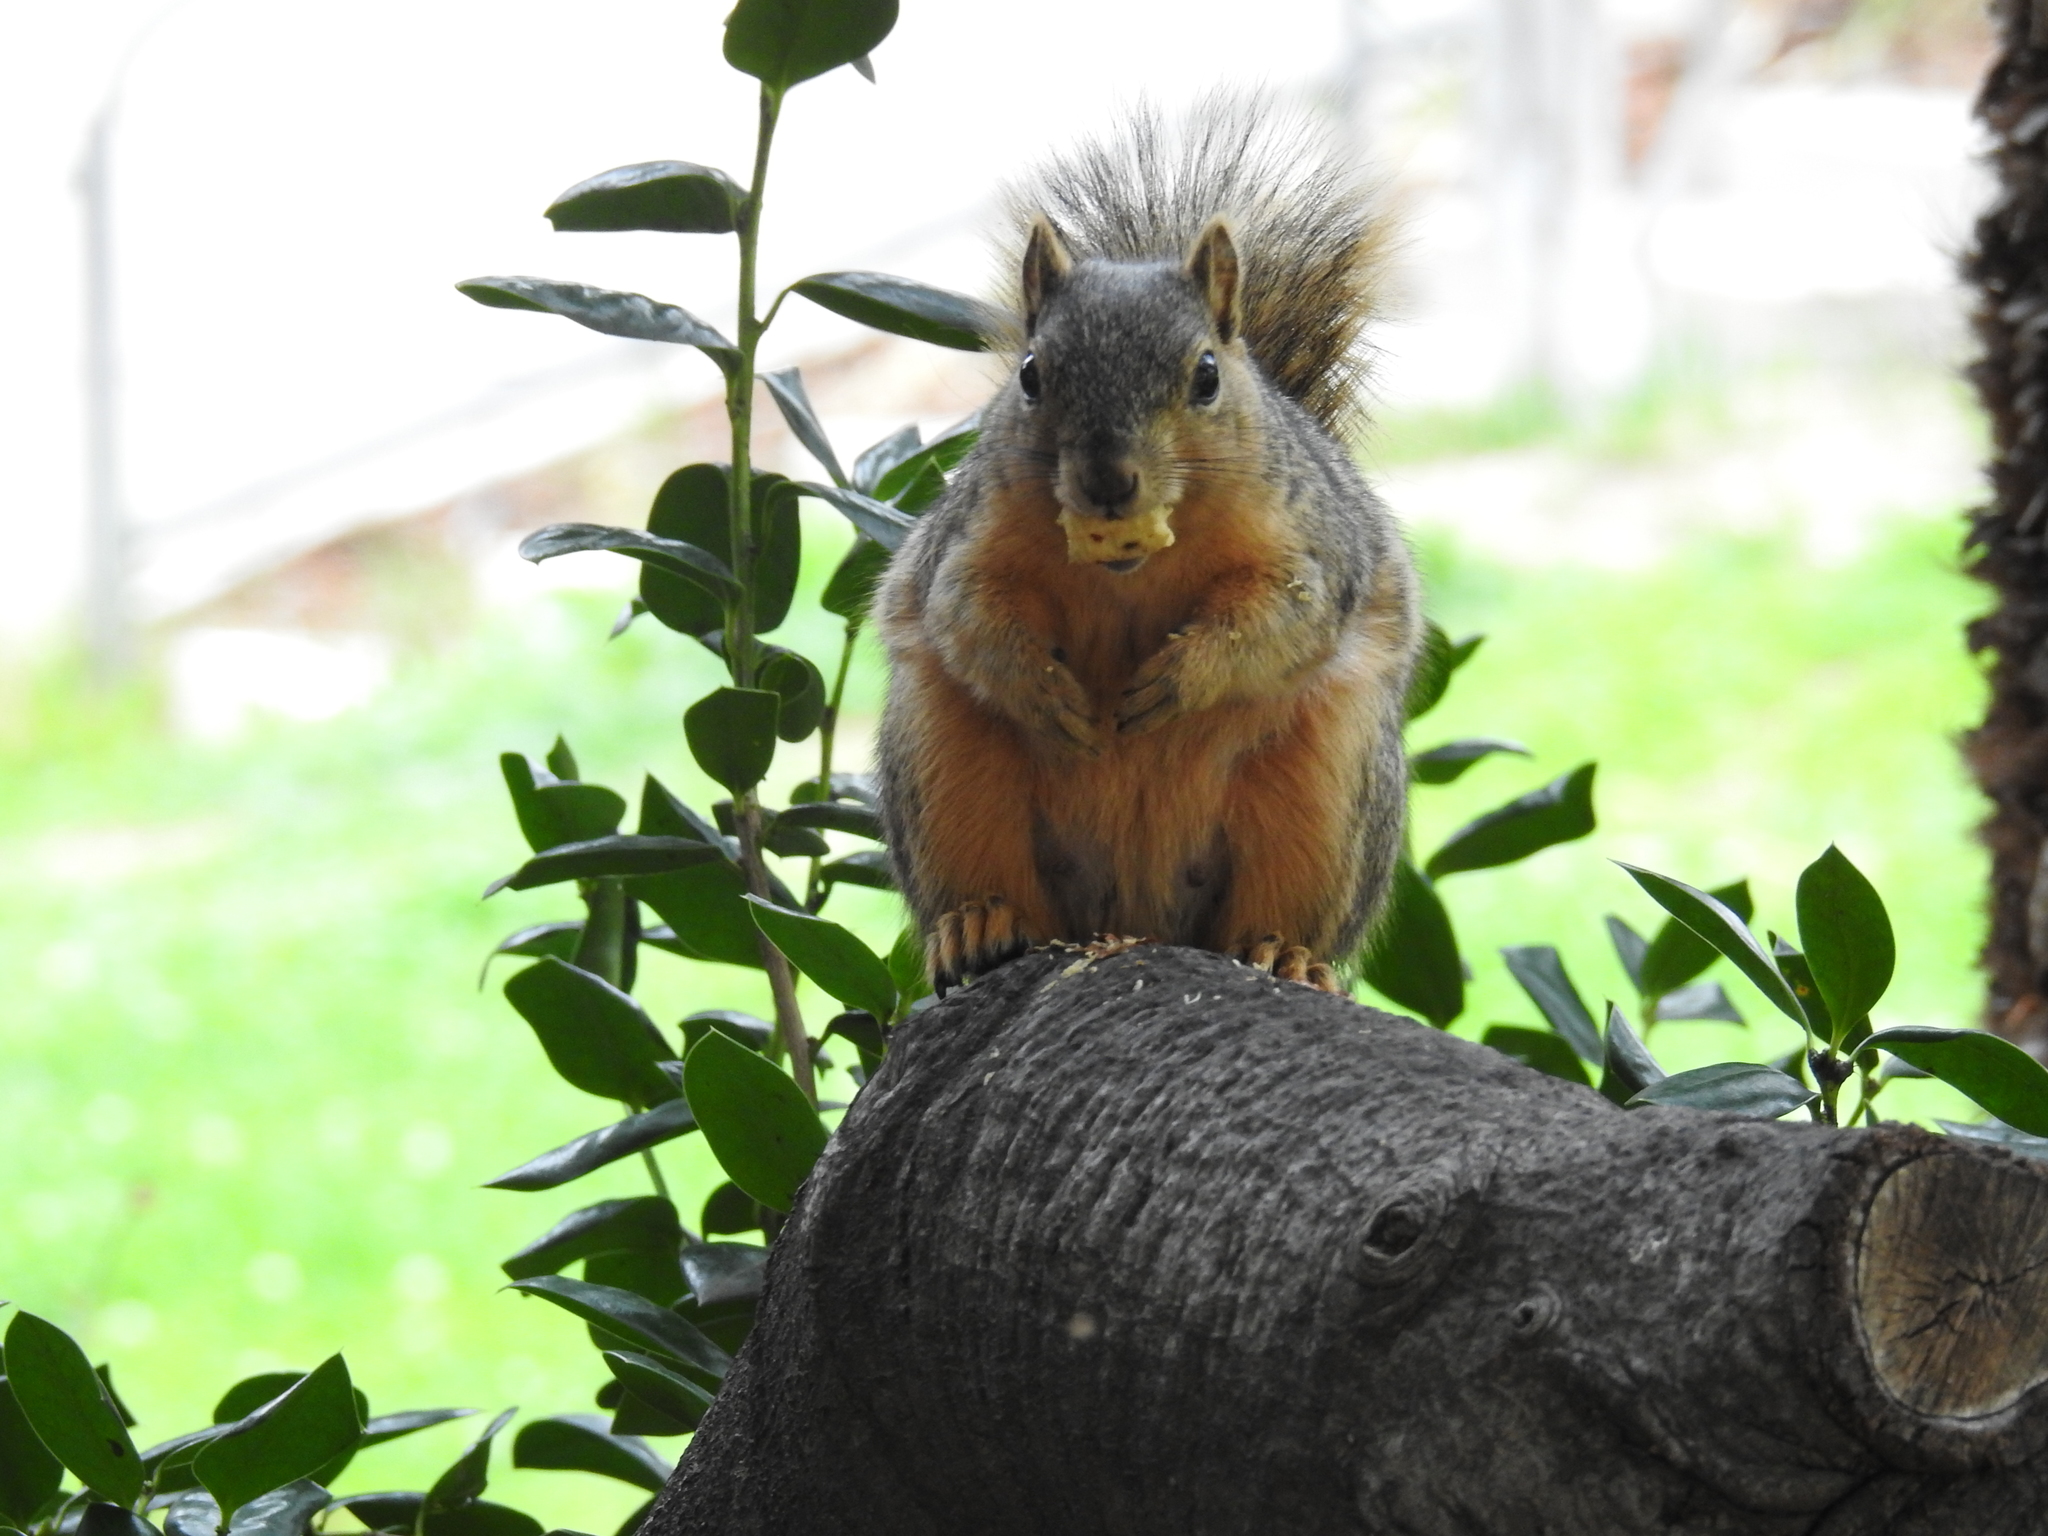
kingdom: Animalia
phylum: Chordata
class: Mammalia
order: Rodentia
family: Sciuridae
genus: Sciurus
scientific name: Sciurus niger
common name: Fox squirrel
